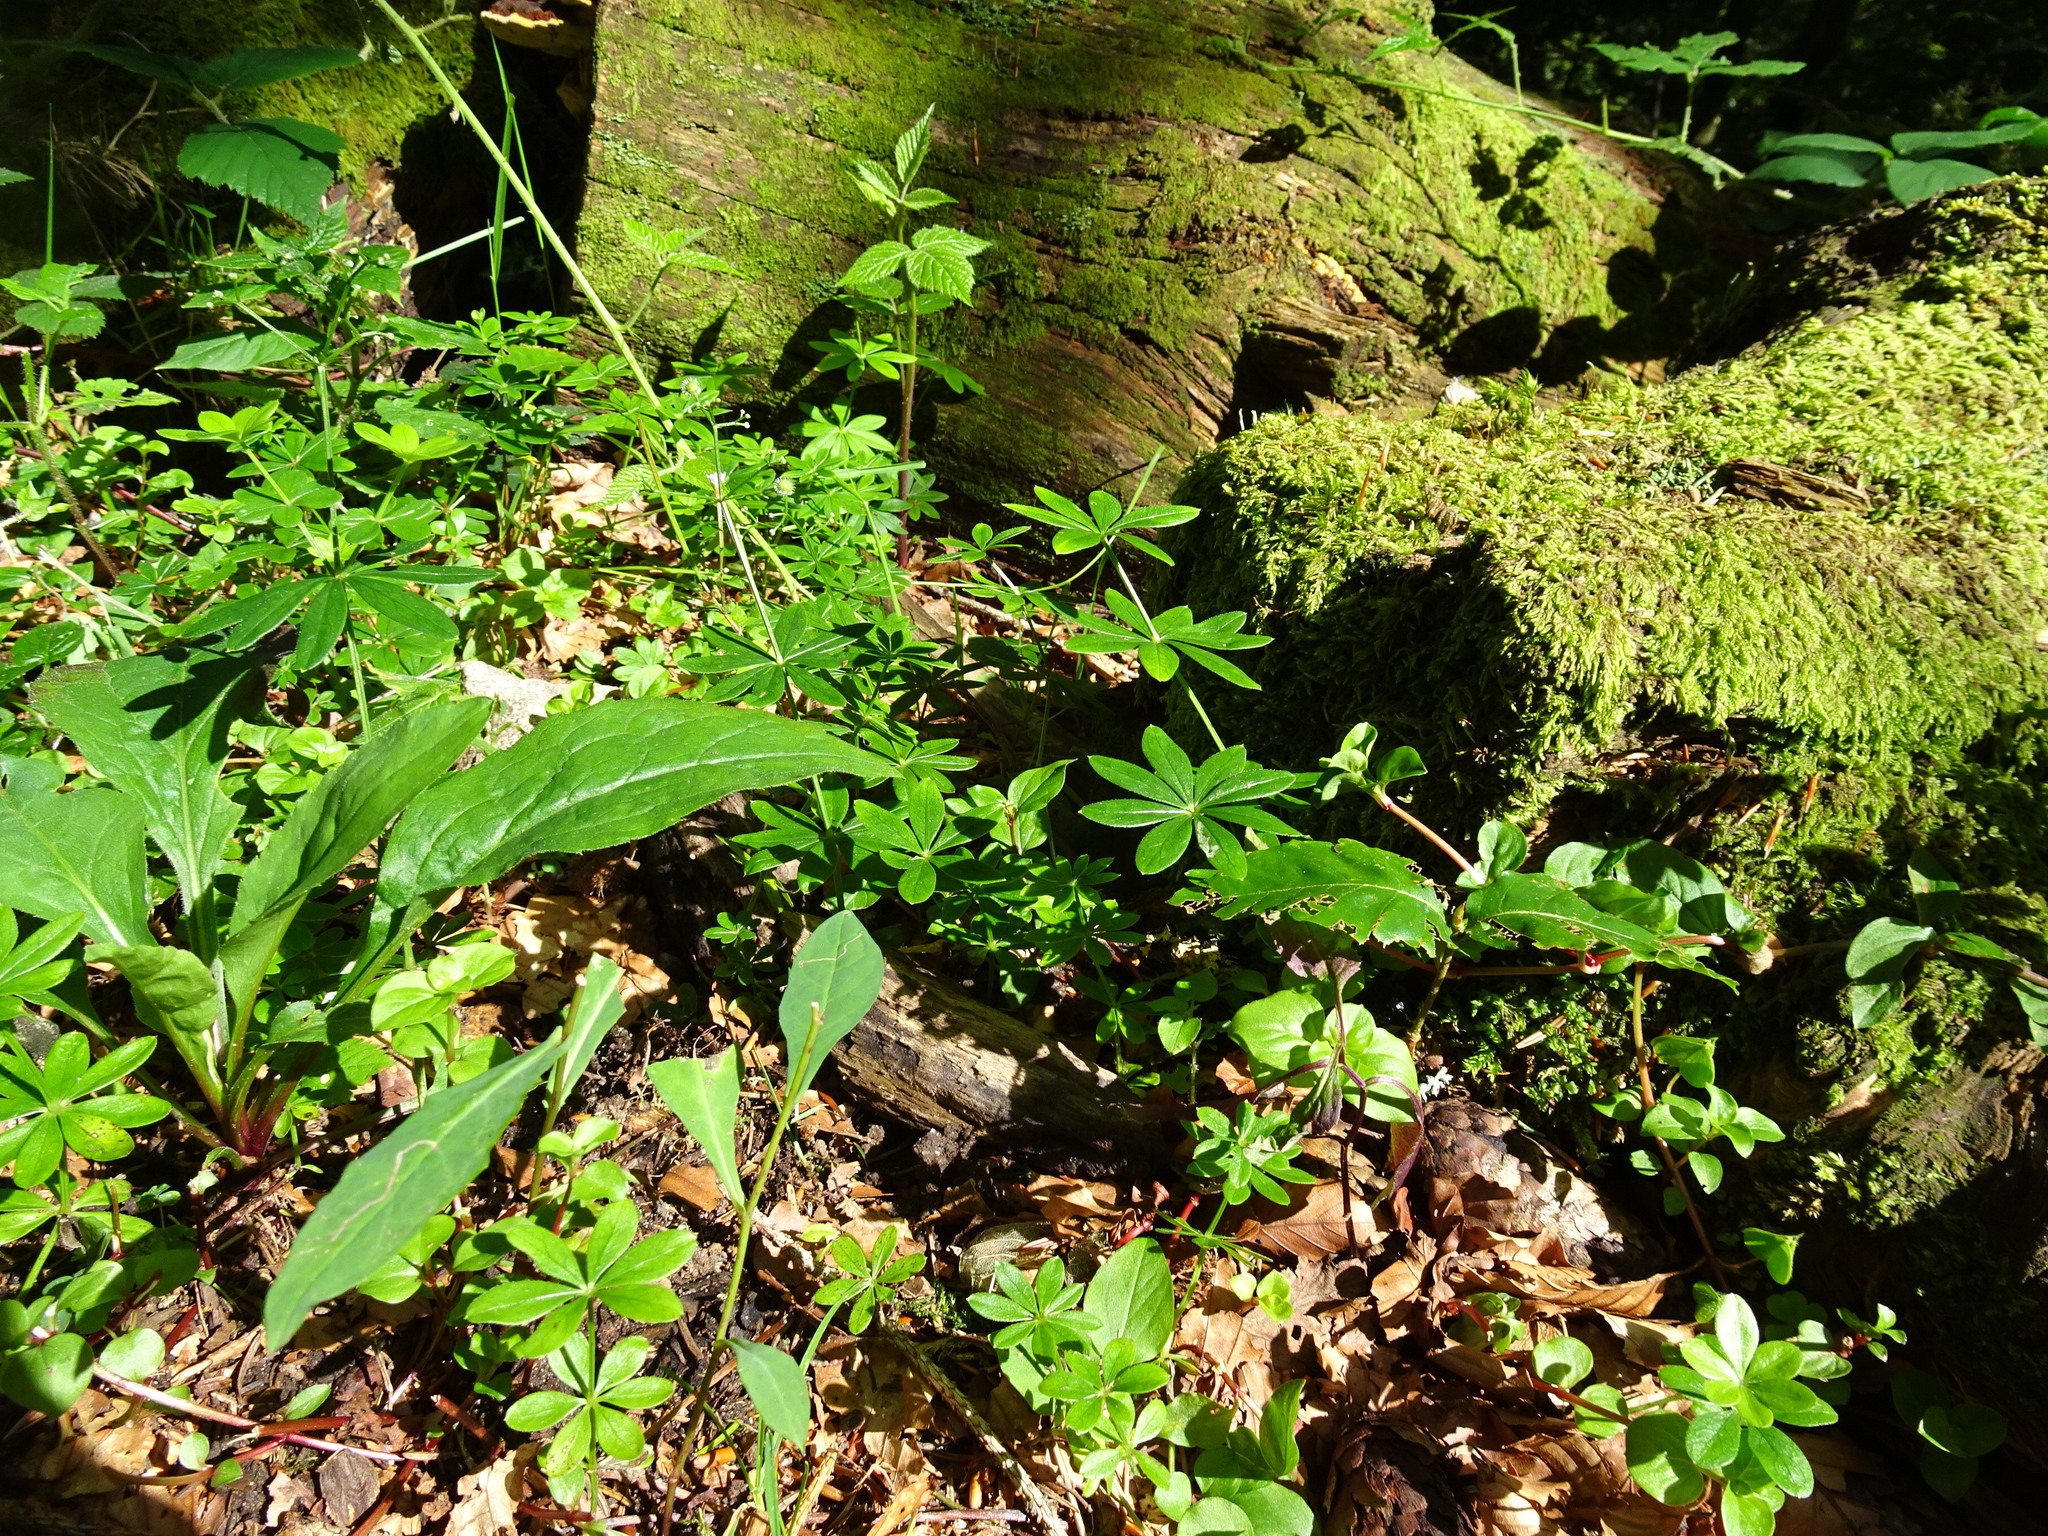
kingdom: Plantae
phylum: Tracheophyta
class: Magnoliopsida
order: Gentianales
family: Rubiaceae
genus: Galium
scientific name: Galium odoratum
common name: Sweet woodruff
